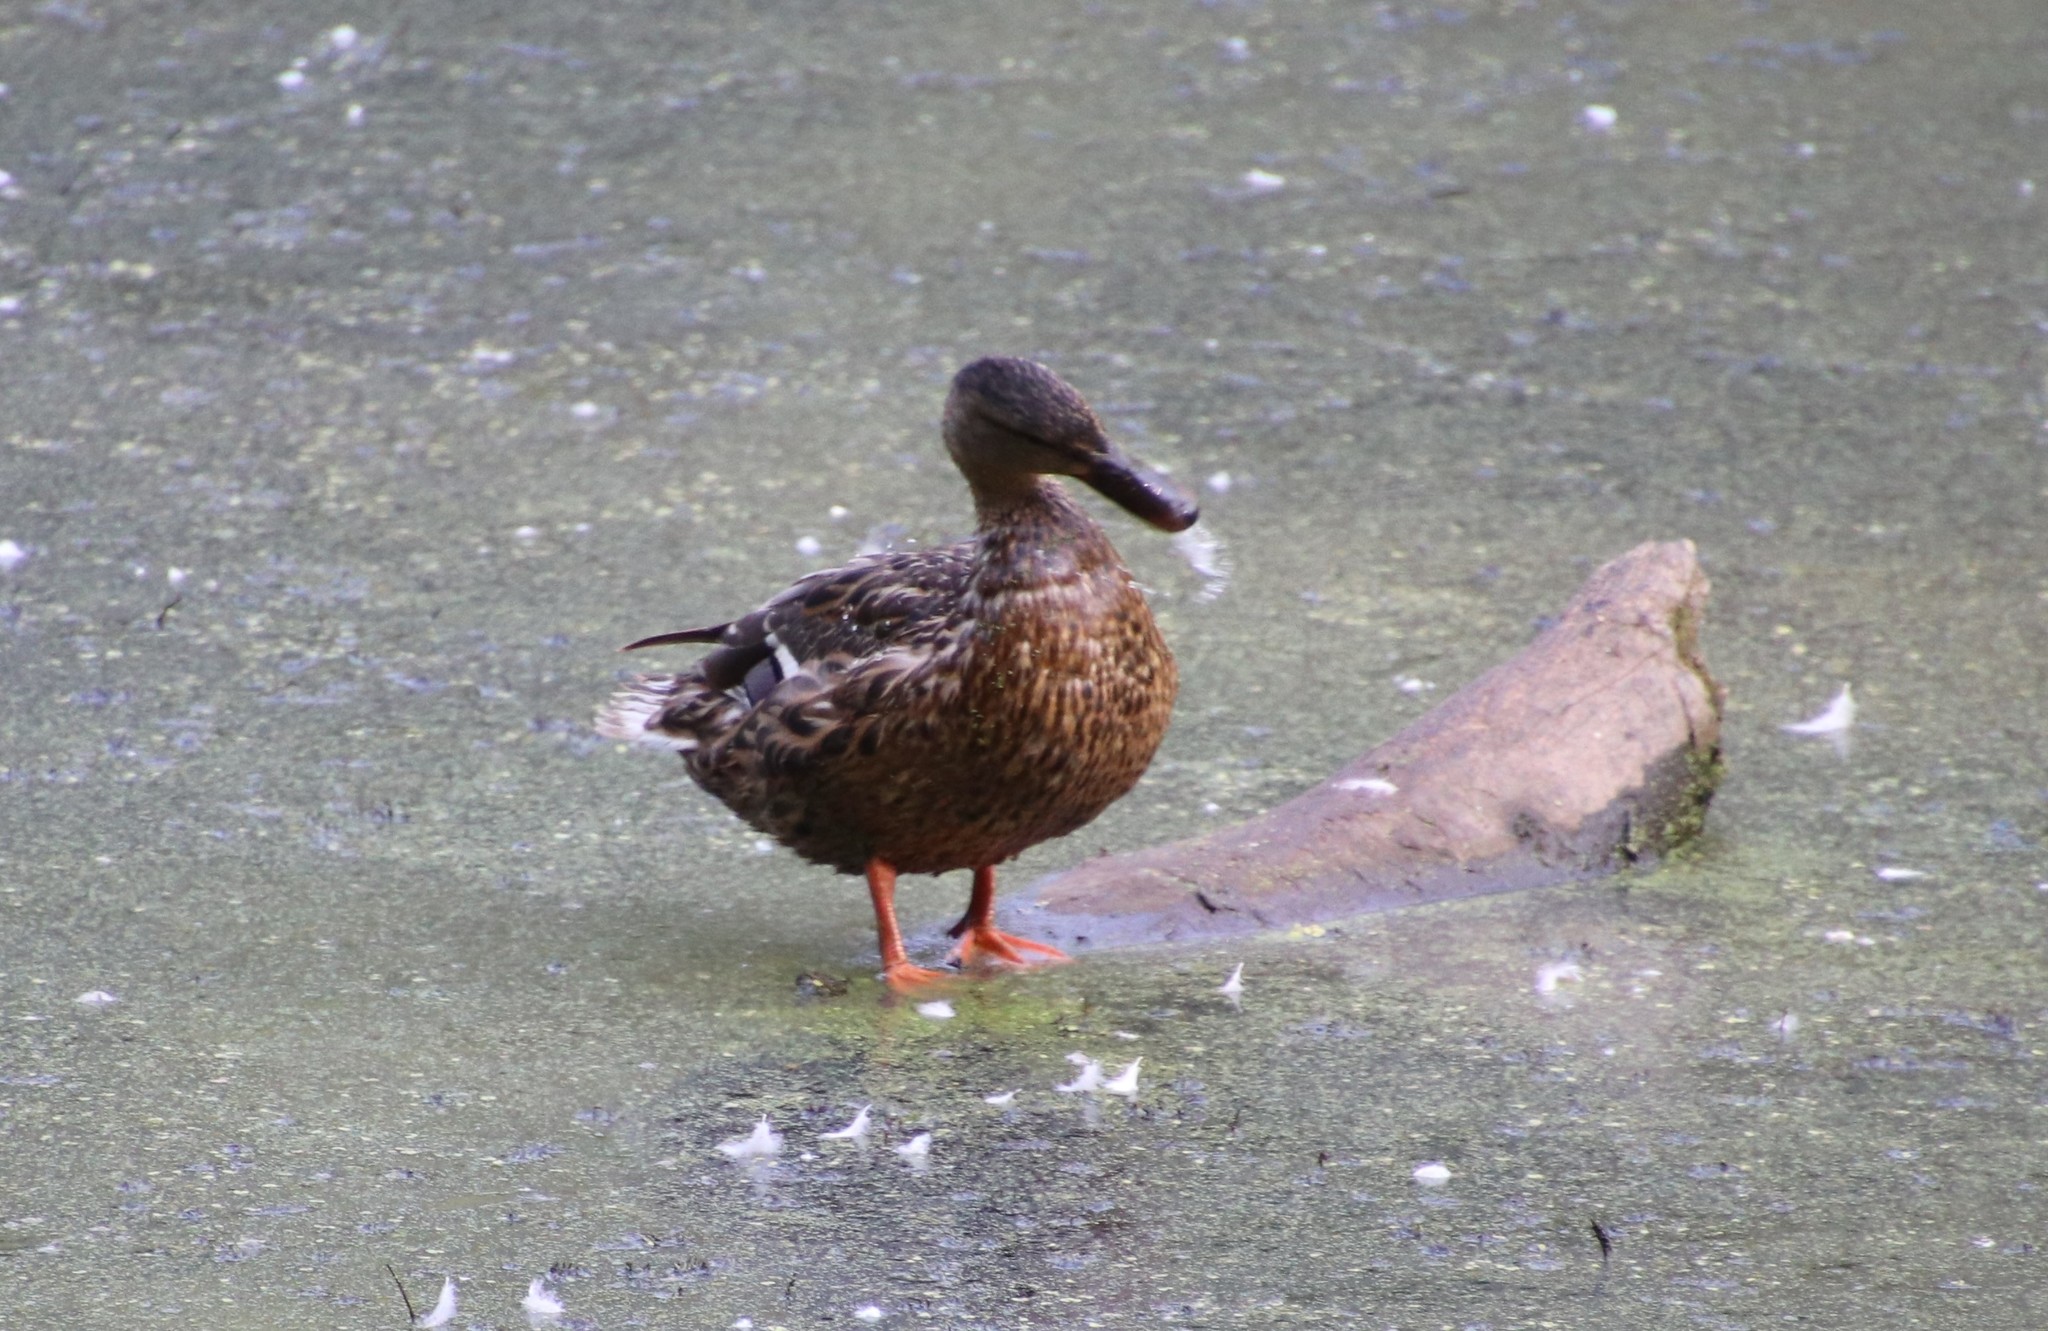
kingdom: Animalia
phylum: Chordata
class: Aves
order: Anseriformes
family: Anatidae
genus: Anas
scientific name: Anas platyrhynchos
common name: Mallard
